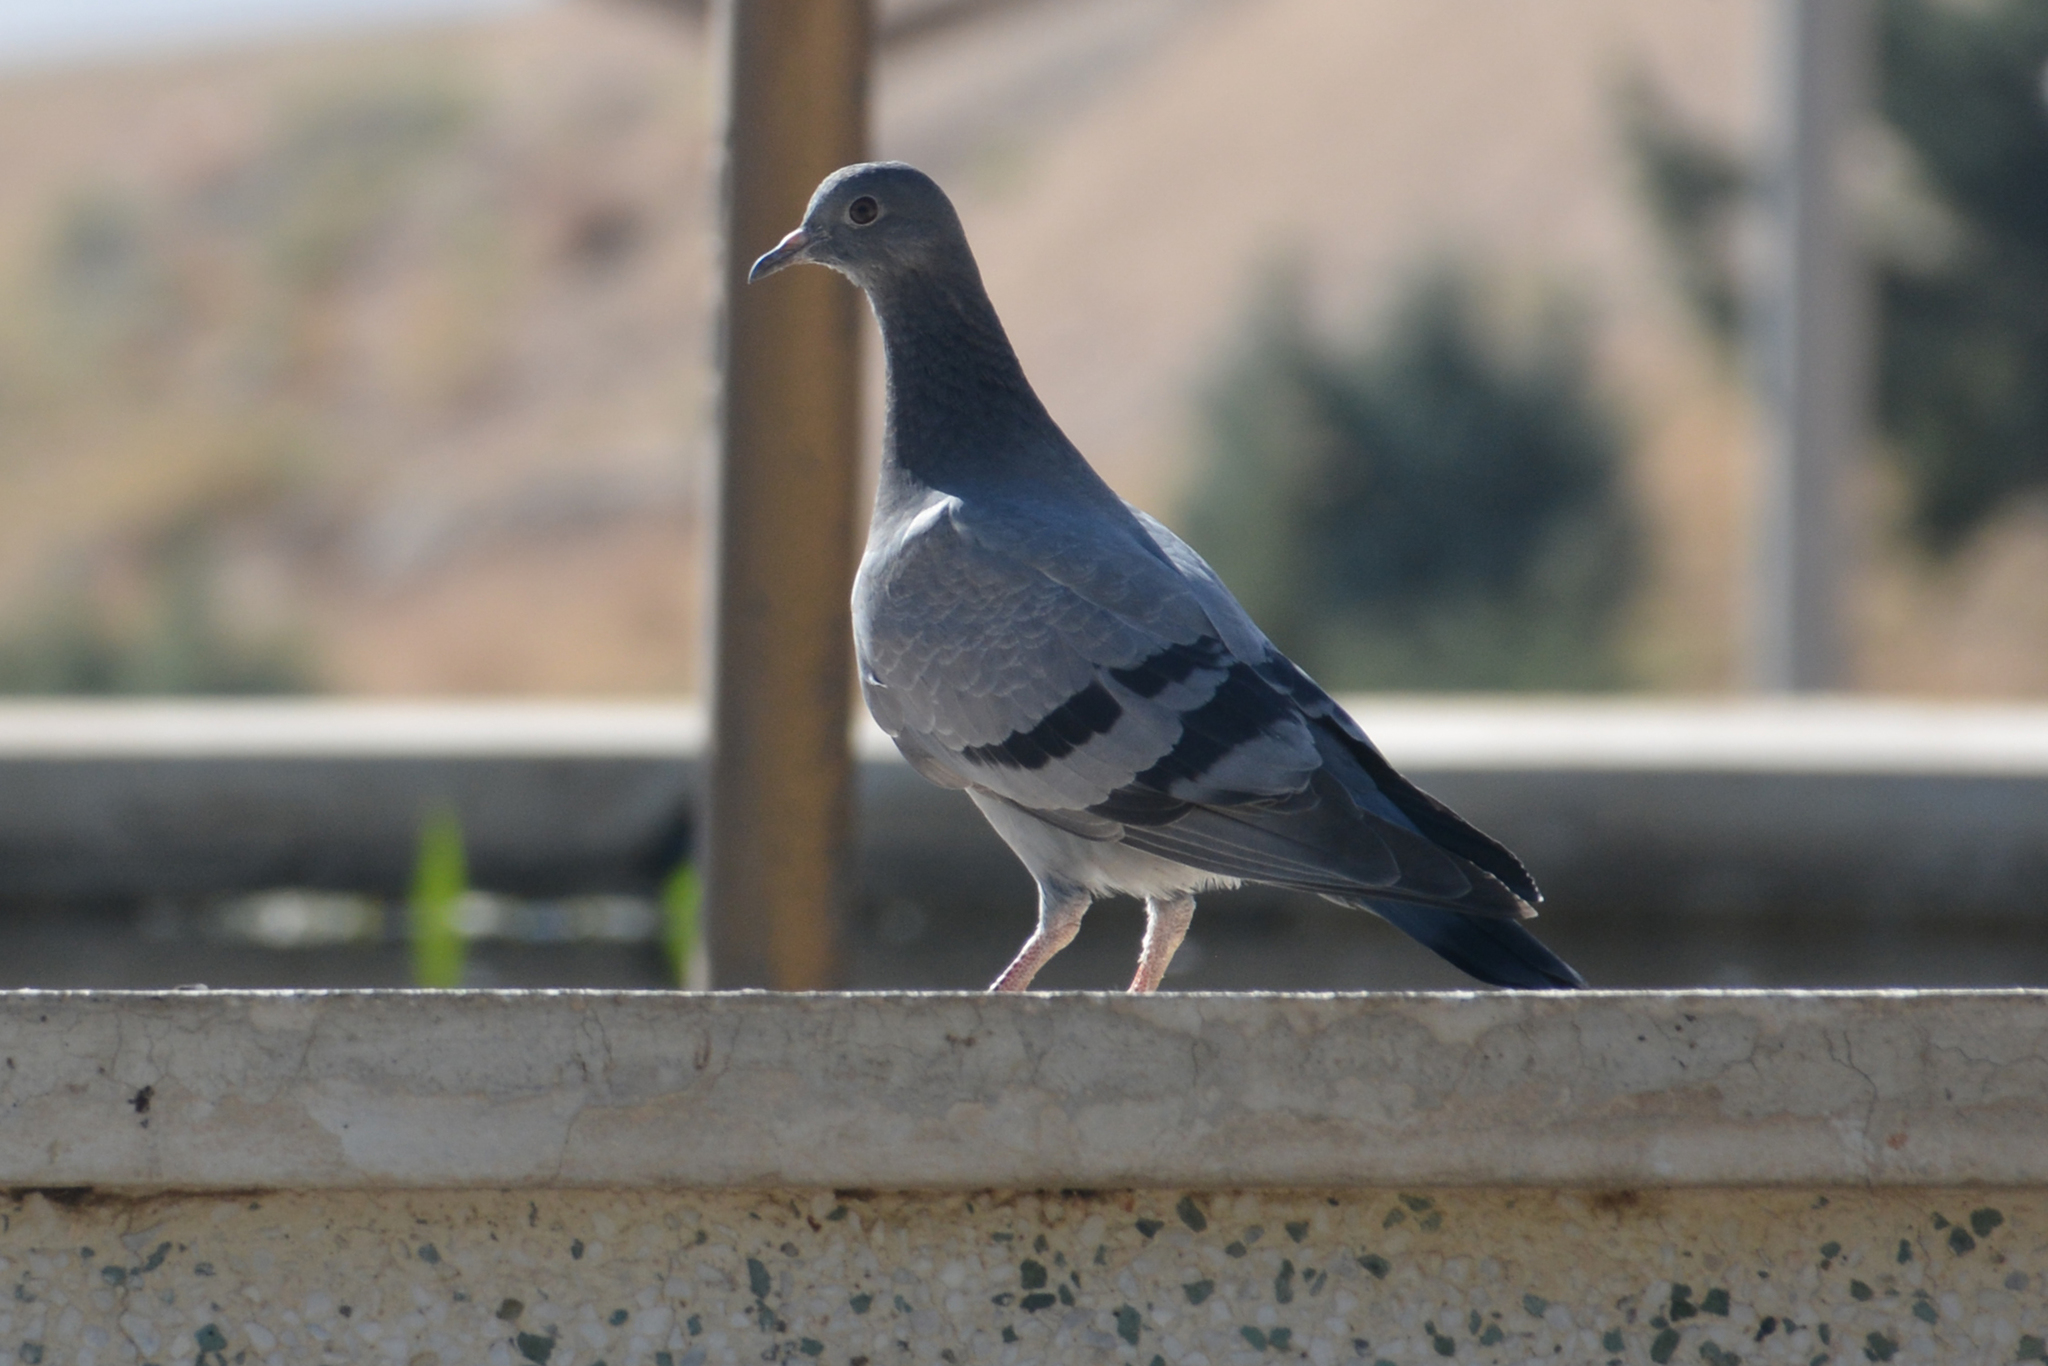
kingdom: Animalia
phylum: Chordata
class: Aves
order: Columbiformes
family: Columbidae
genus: Columba
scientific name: Columba livia
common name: Rock pigeon
